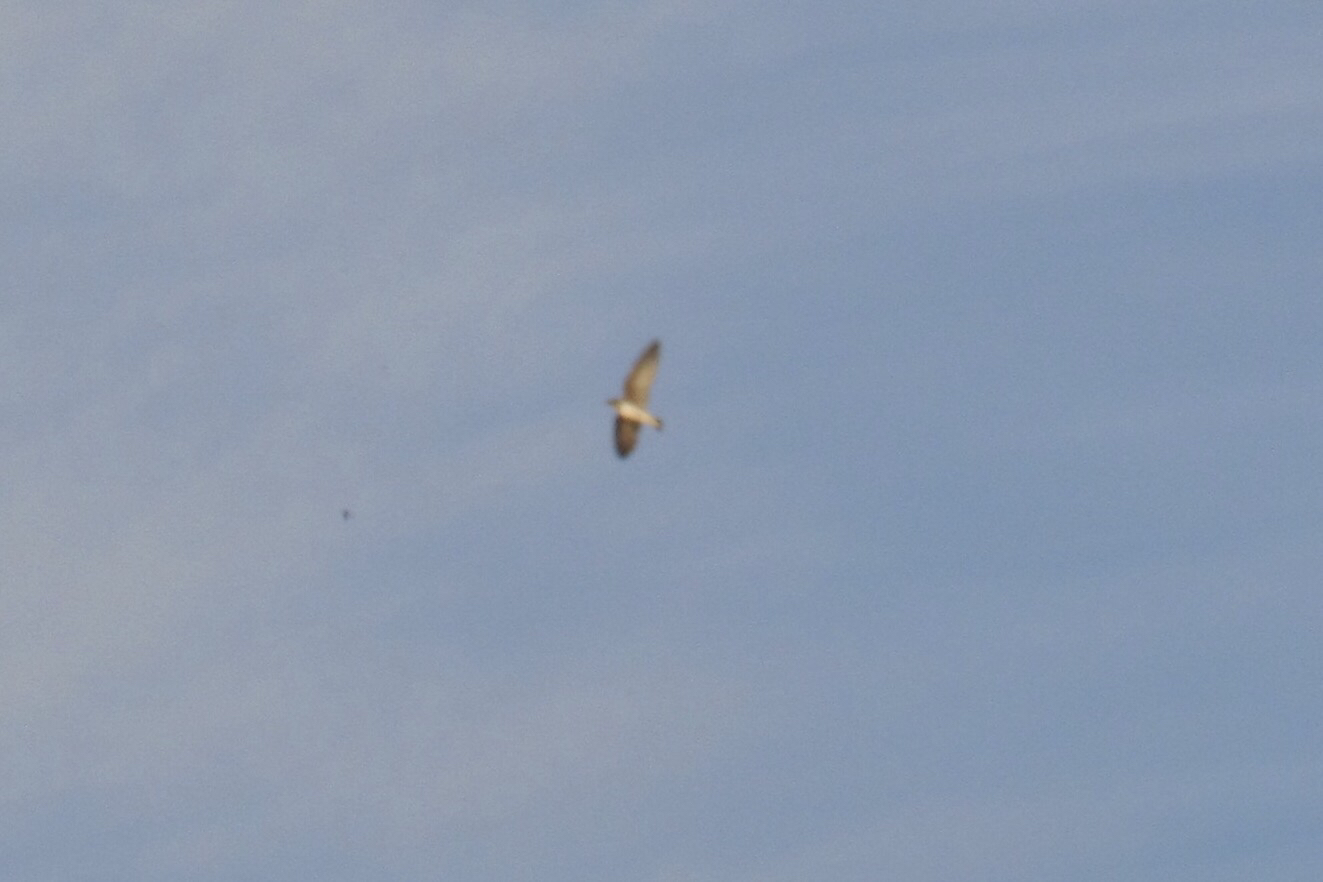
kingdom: Animalia
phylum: Chordata
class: Aves
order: Passeriformes
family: Hirundinidae
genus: Stelgidopteryx
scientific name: Stelgidopteryx serripennis
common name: Northern rough-winged swallow
